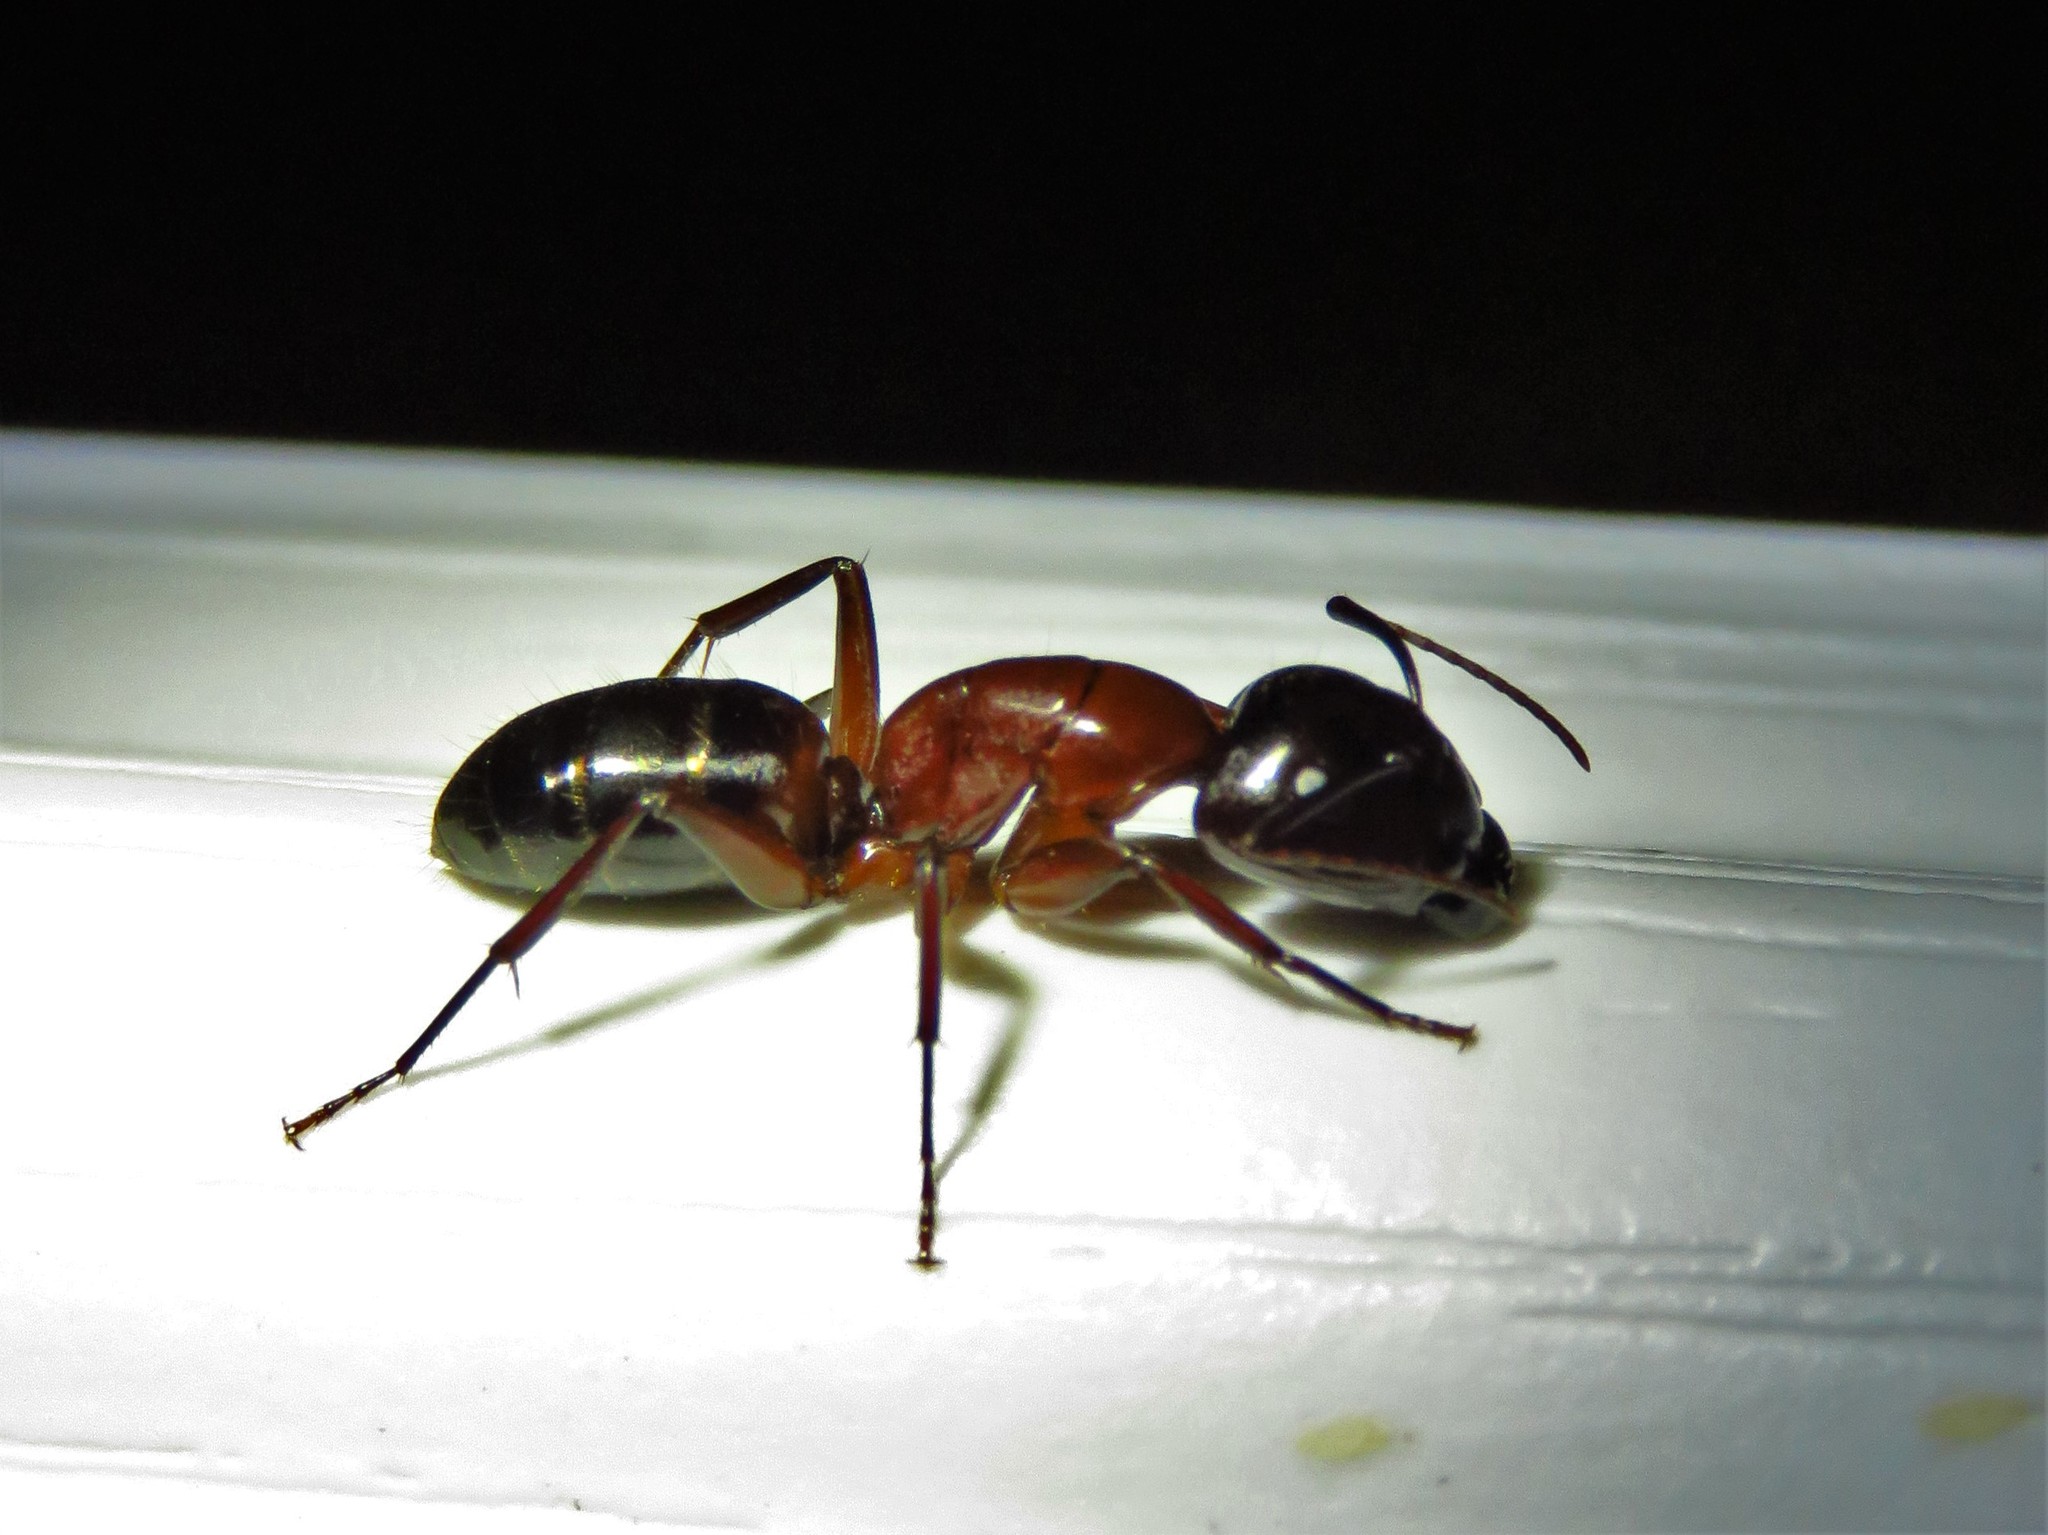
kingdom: Animalia
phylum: Arthropoda
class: Insecta
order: Hymenoptera
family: Formicidae
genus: Camponotus
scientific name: Camponotus texanus
